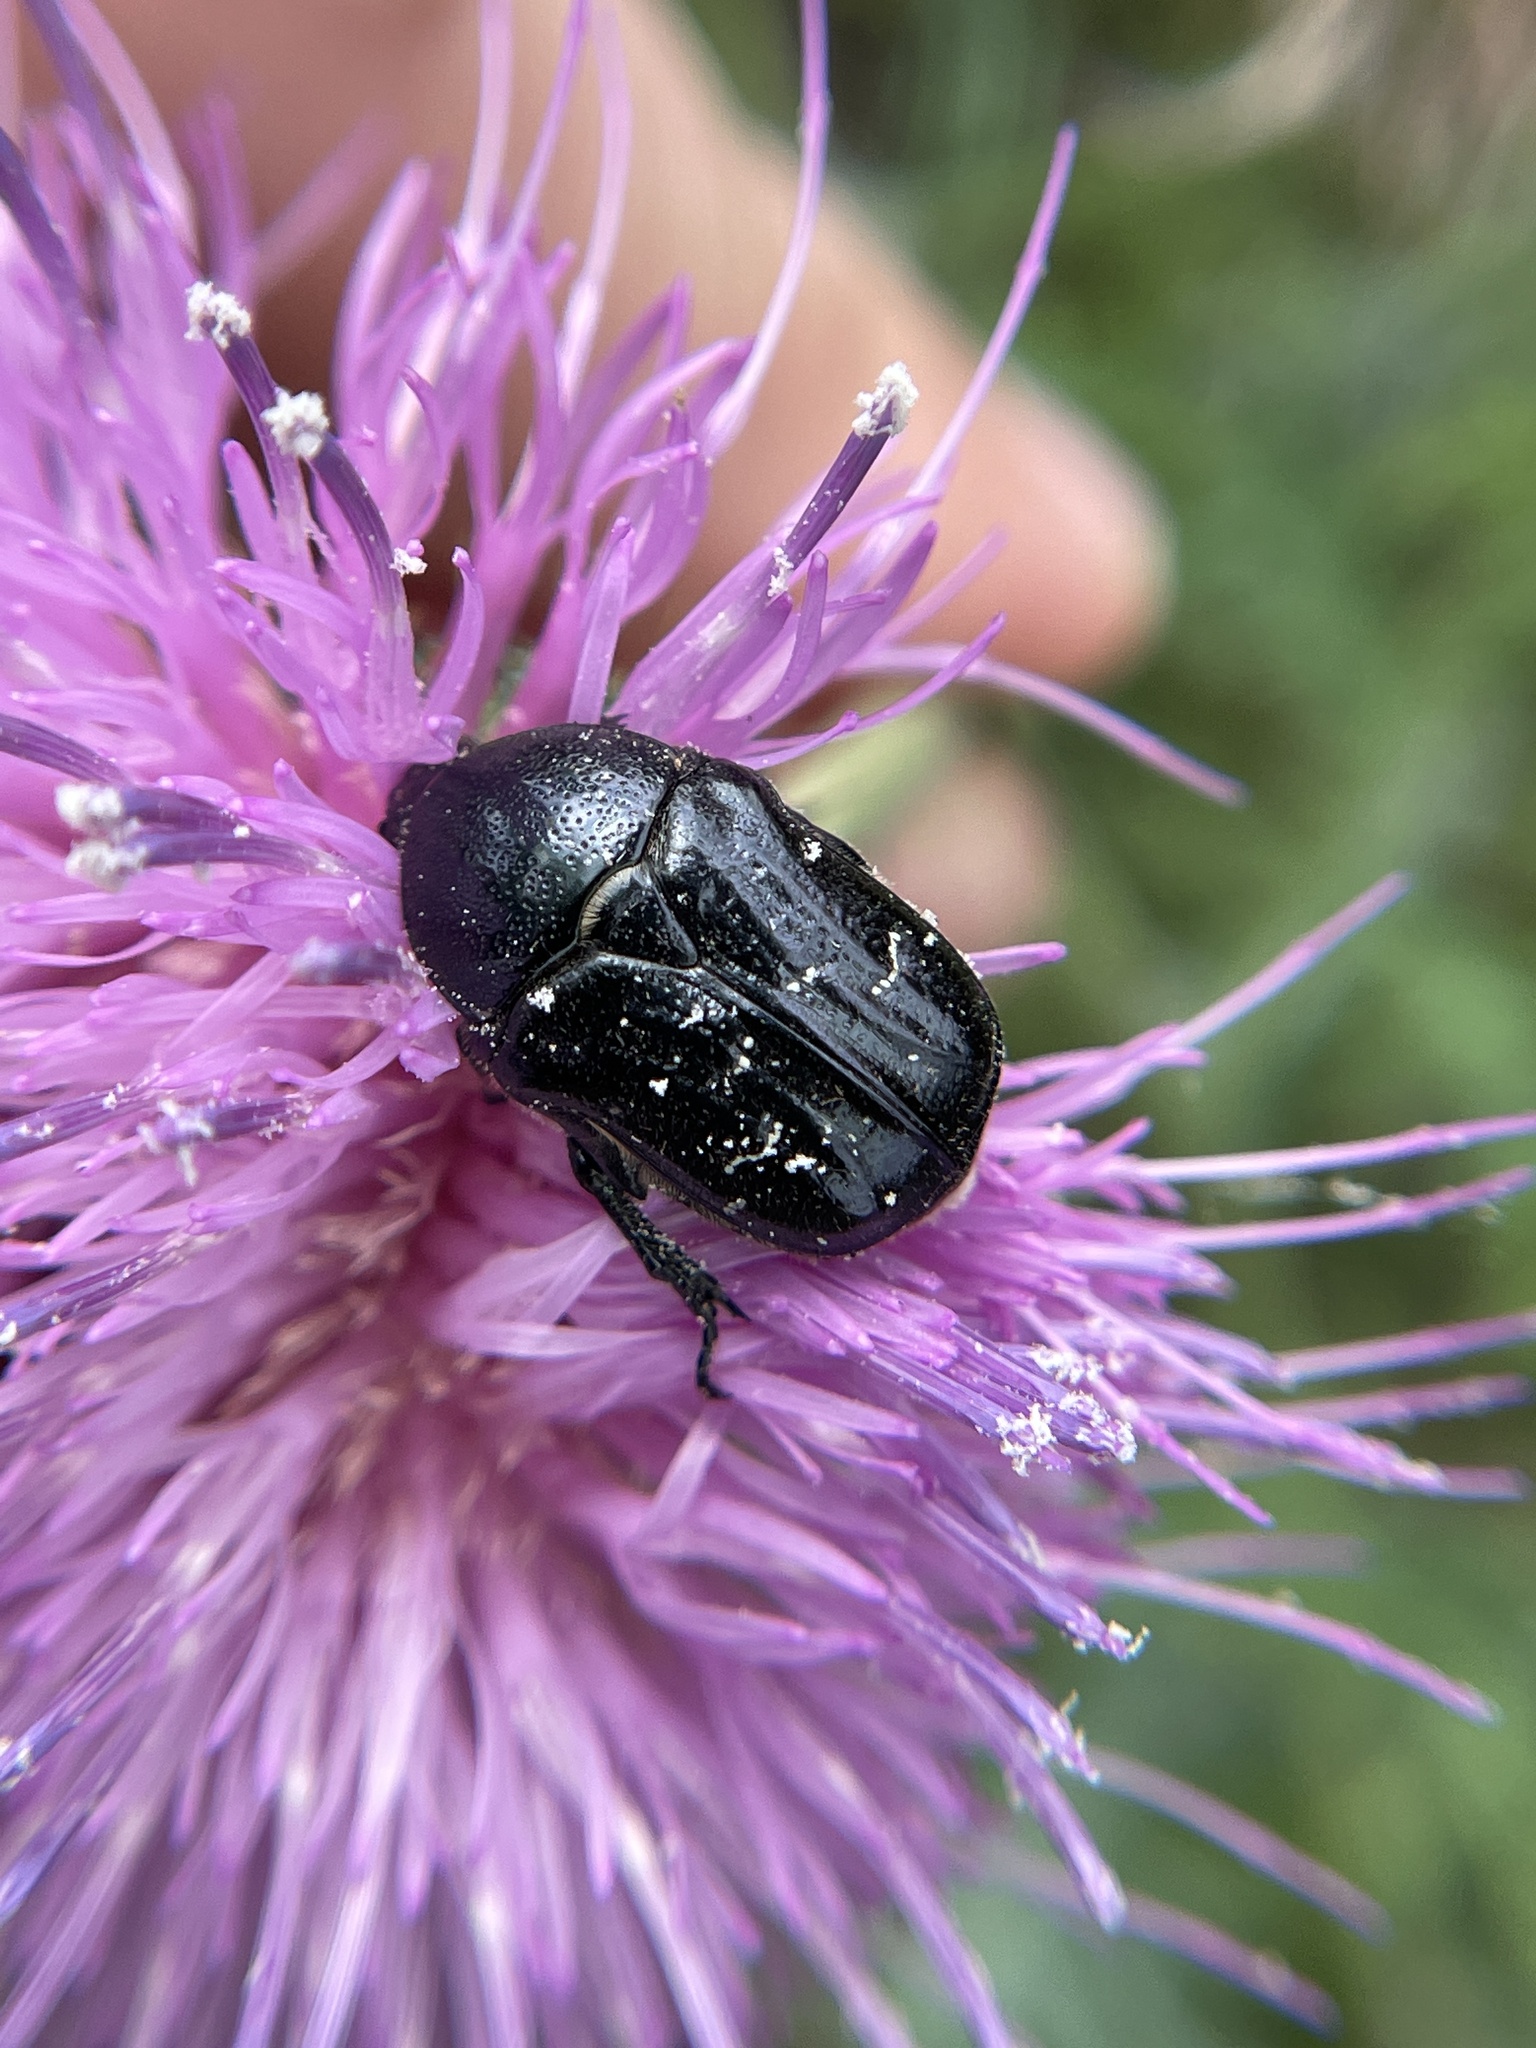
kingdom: Animalia
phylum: Arthropoda
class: Insecta
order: Coleoptera
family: Scarabaeidae
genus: Euphoria
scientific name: Euphoria sepulcralis
